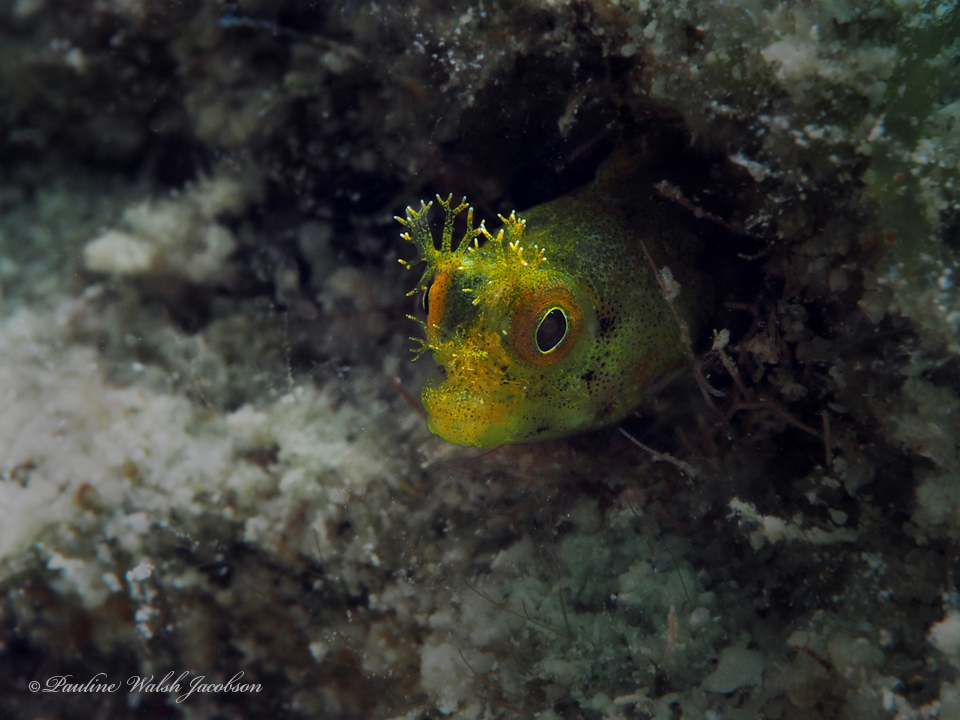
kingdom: Animalia
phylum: Chordata
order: Perciformes
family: Chaenopsidae
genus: Acanthemblemaria
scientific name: Acanthemblemaria aspera
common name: Roughhead blenny
